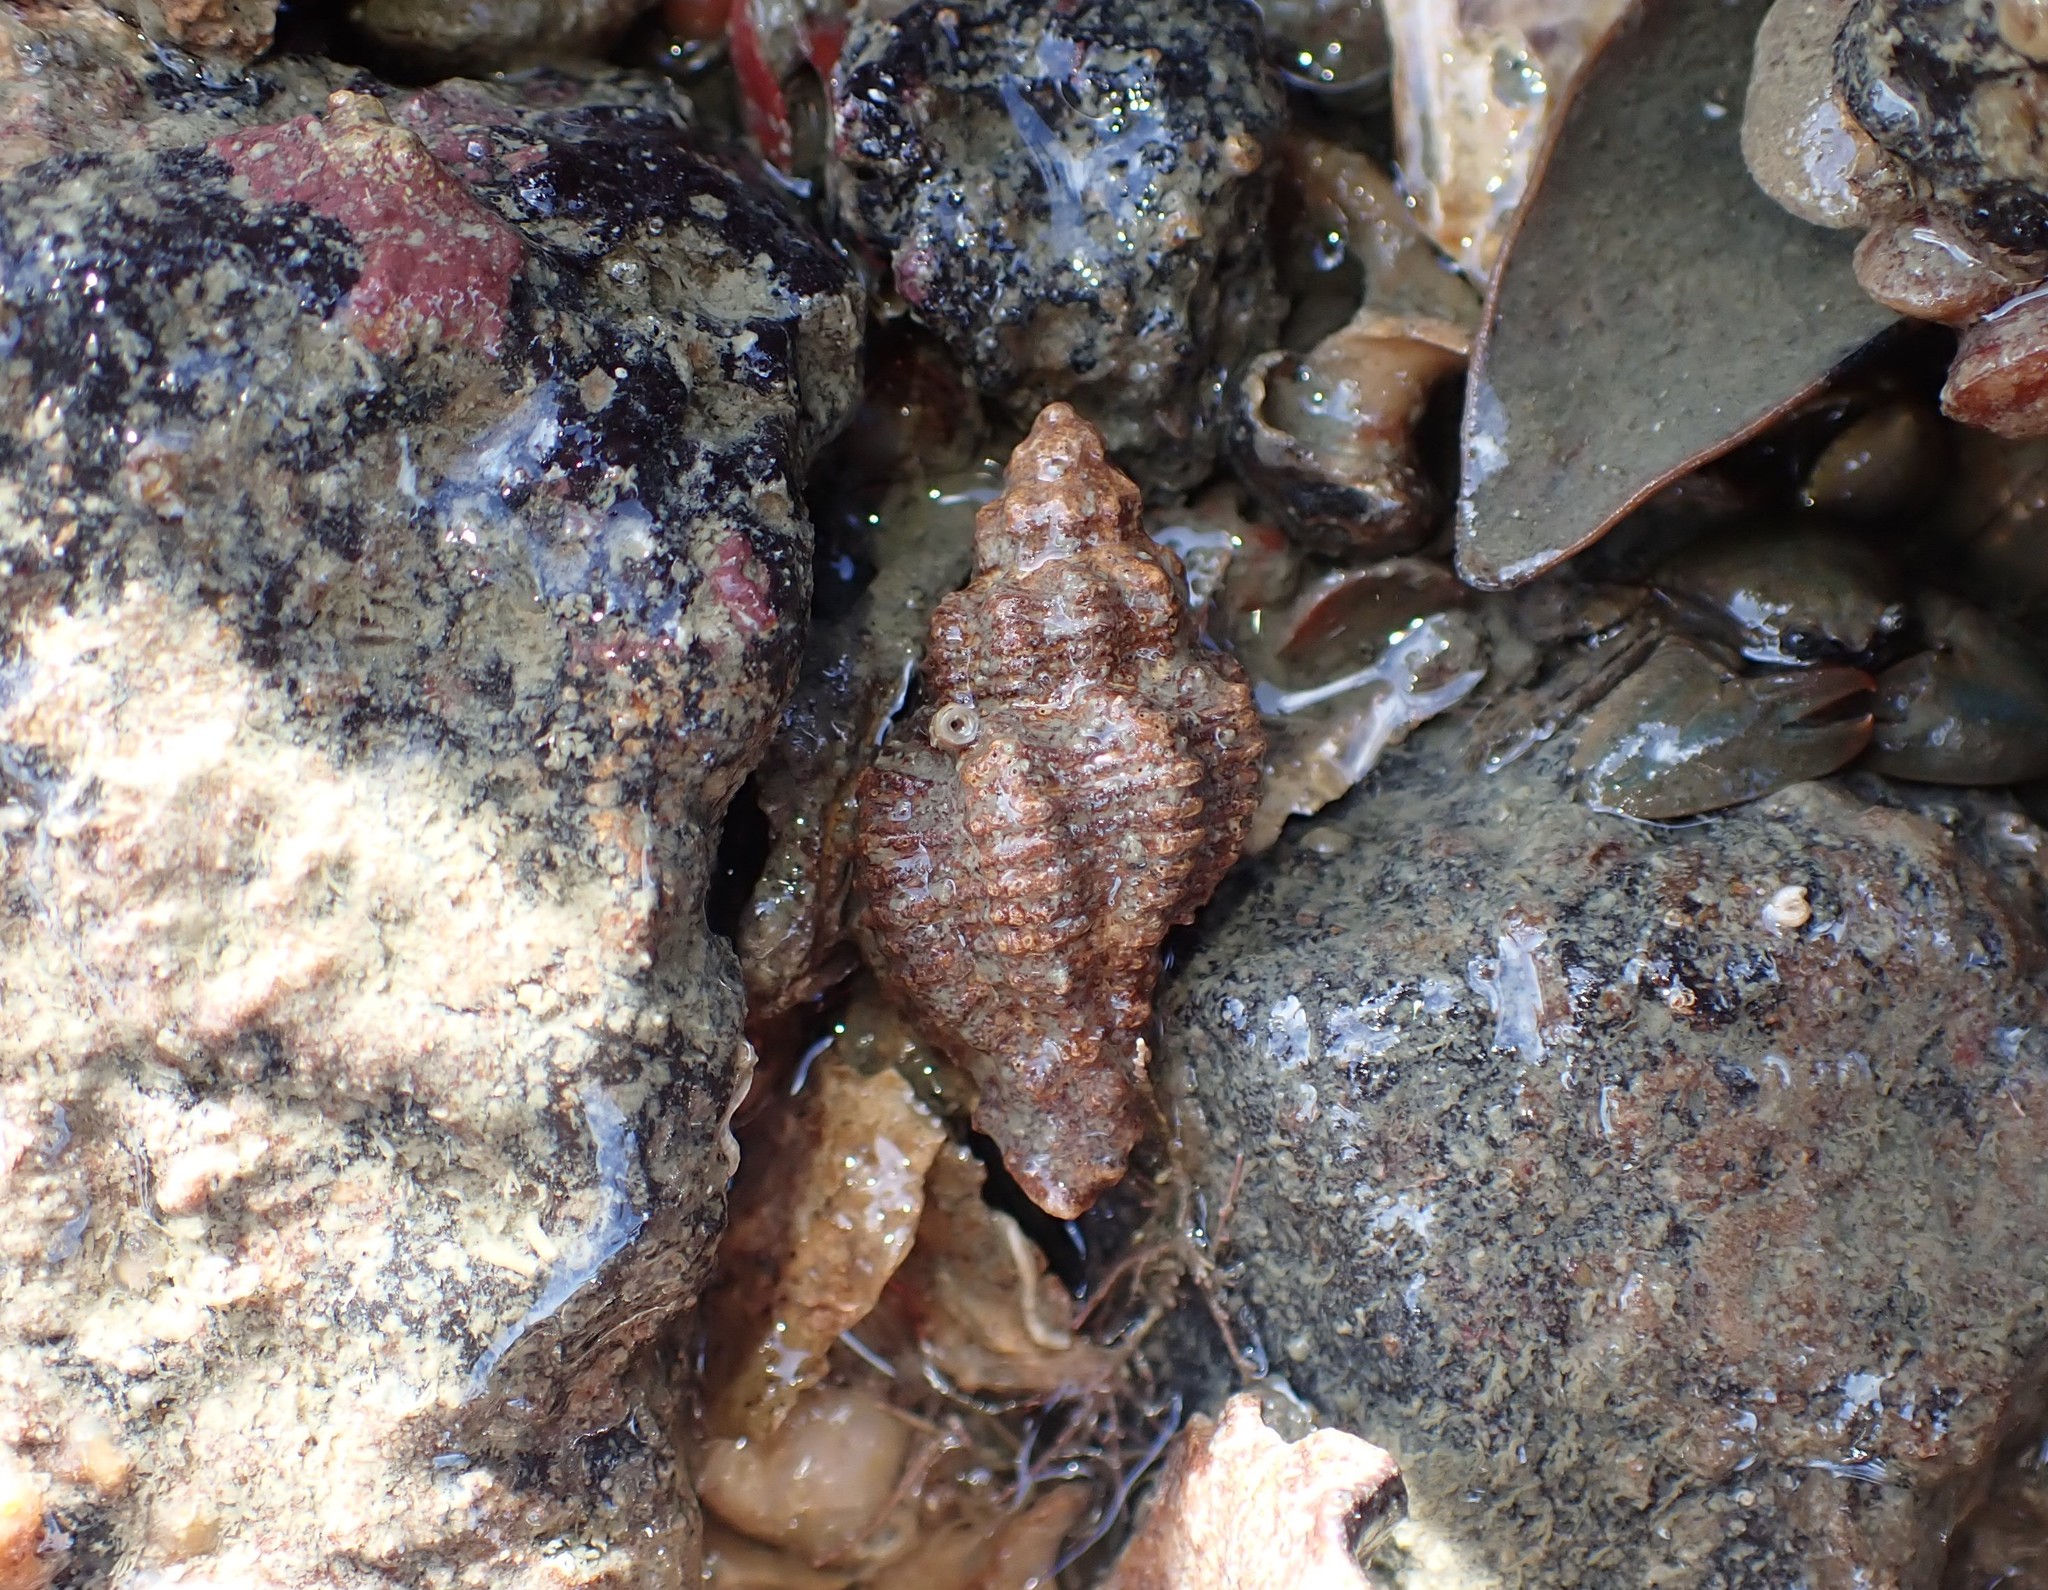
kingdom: Animalia
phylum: Mollusca
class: Gastropoda
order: Neogastropoda
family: Muricidae
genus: Murexsul
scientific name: Murexsul octogonus
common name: Octagon murex
